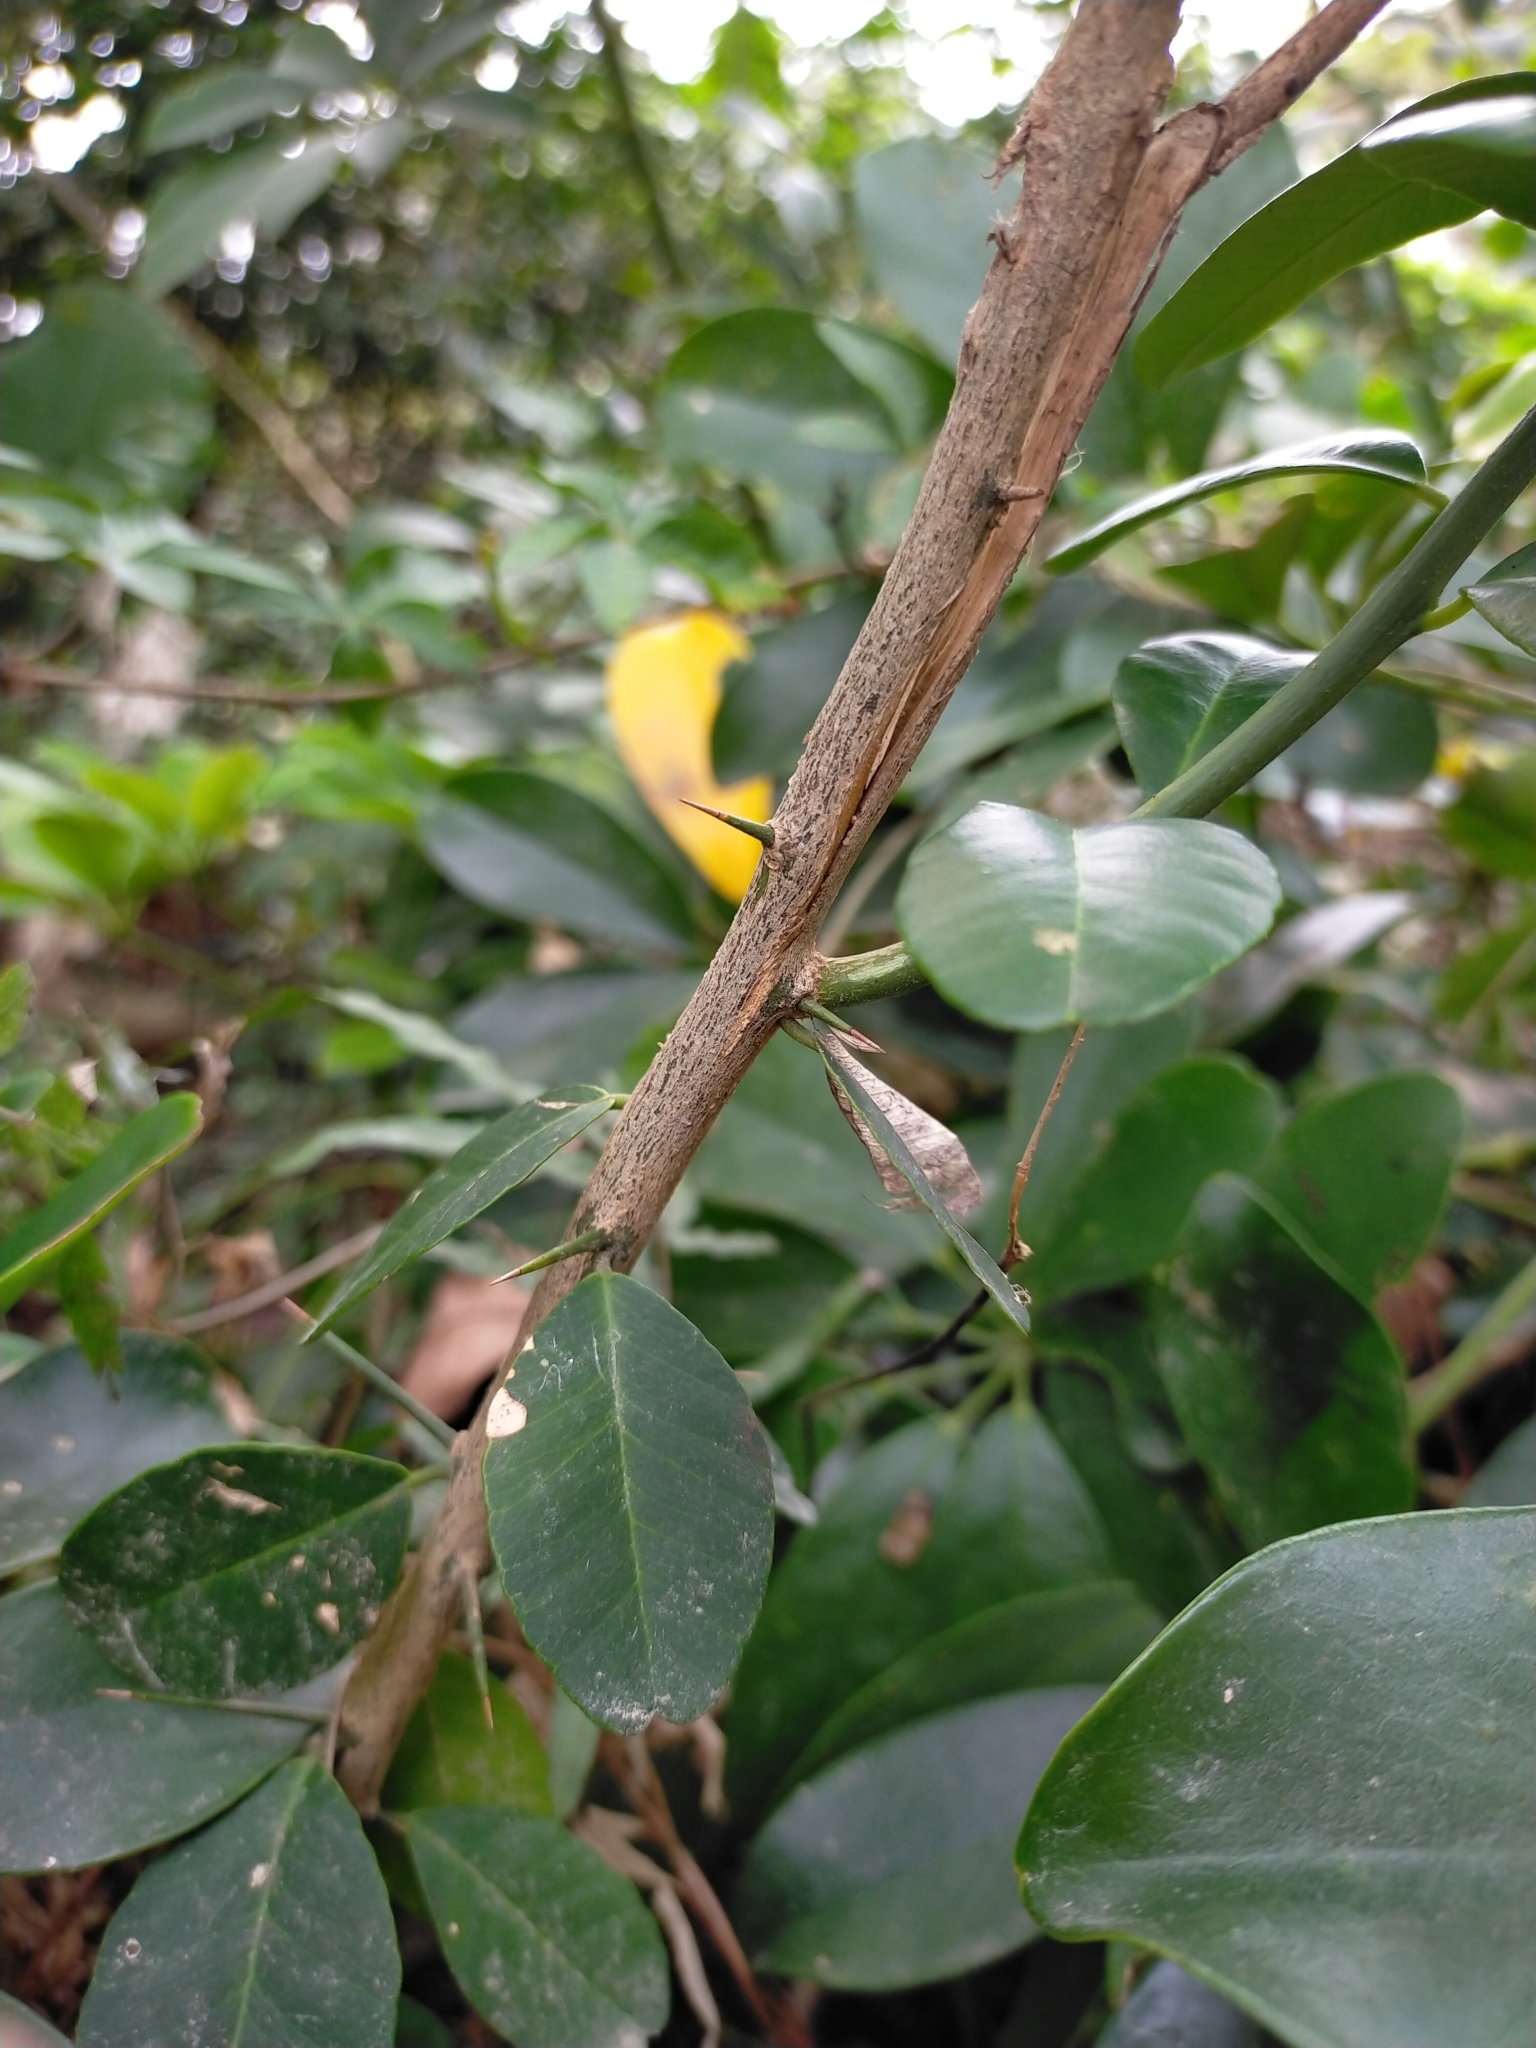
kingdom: Plantae
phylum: Tracheophyta
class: Magnoliopsida
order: Sapindales
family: Rutaceae
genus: Atalantia
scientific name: Atalantia buxifolia
